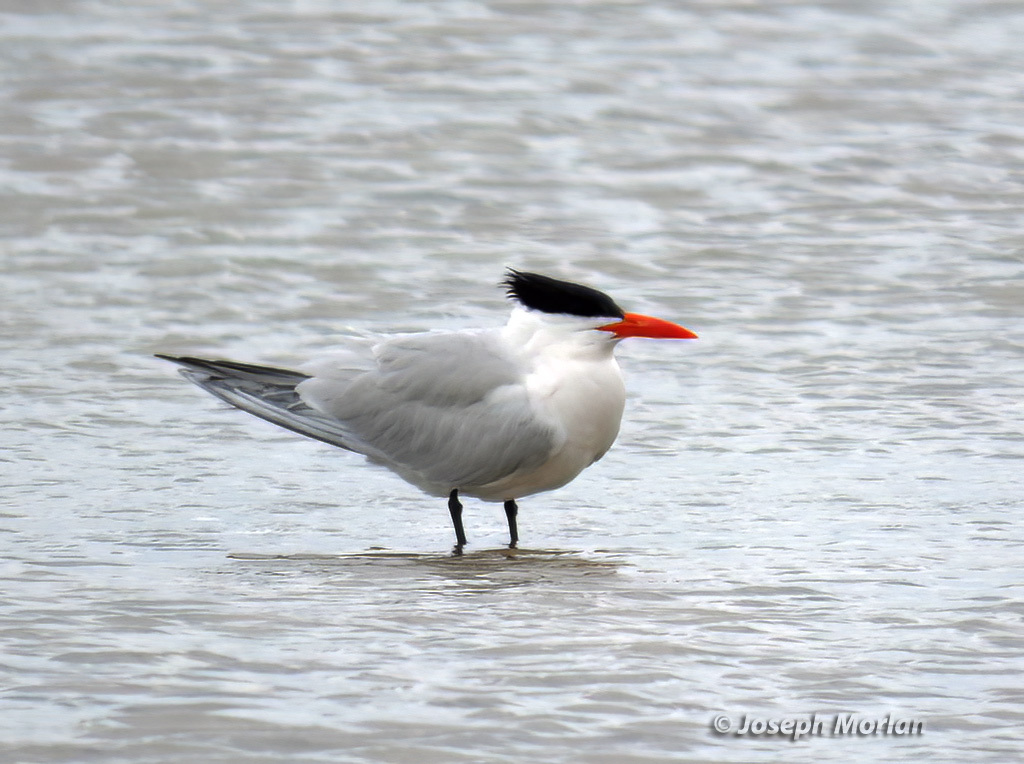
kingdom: Animalia
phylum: Chordata
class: Aves
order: Charadriiformes
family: Laridae
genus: Thalasseus
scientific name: Thalasseus maximus
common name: Royal tern
